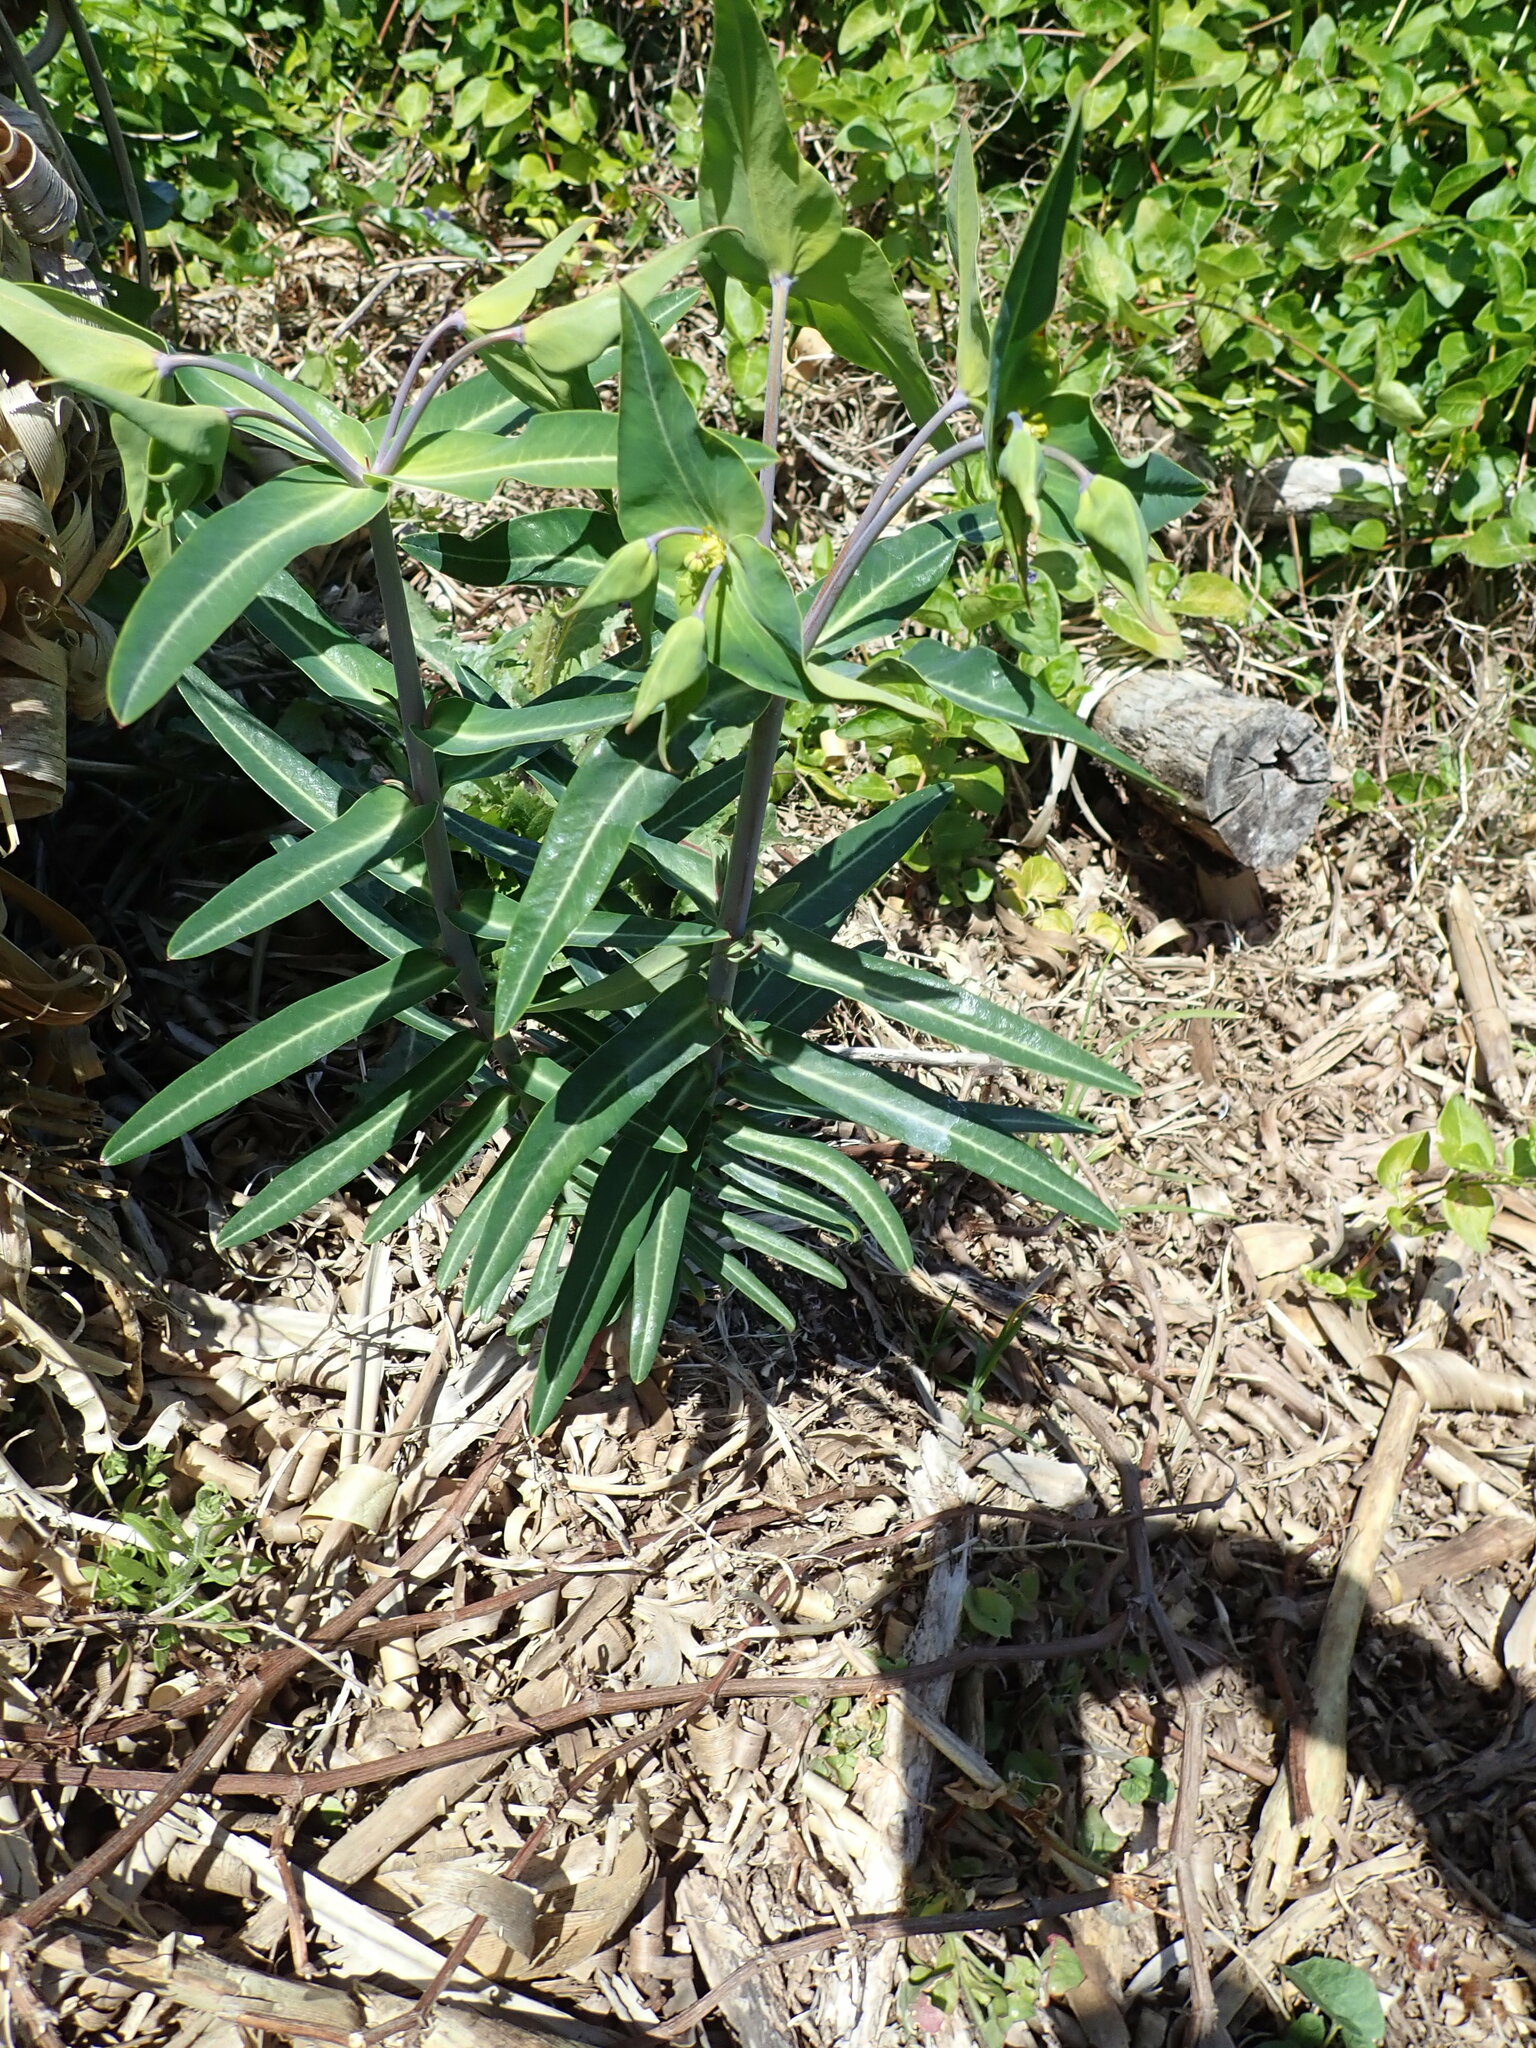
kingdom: Plantae
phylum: Tracheophyta
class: Magnoliopsida
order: Malpighiales
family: Euphorbiaceae
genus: Euphorbia
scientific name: Euphorbia lathyris
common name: Caper spurge
